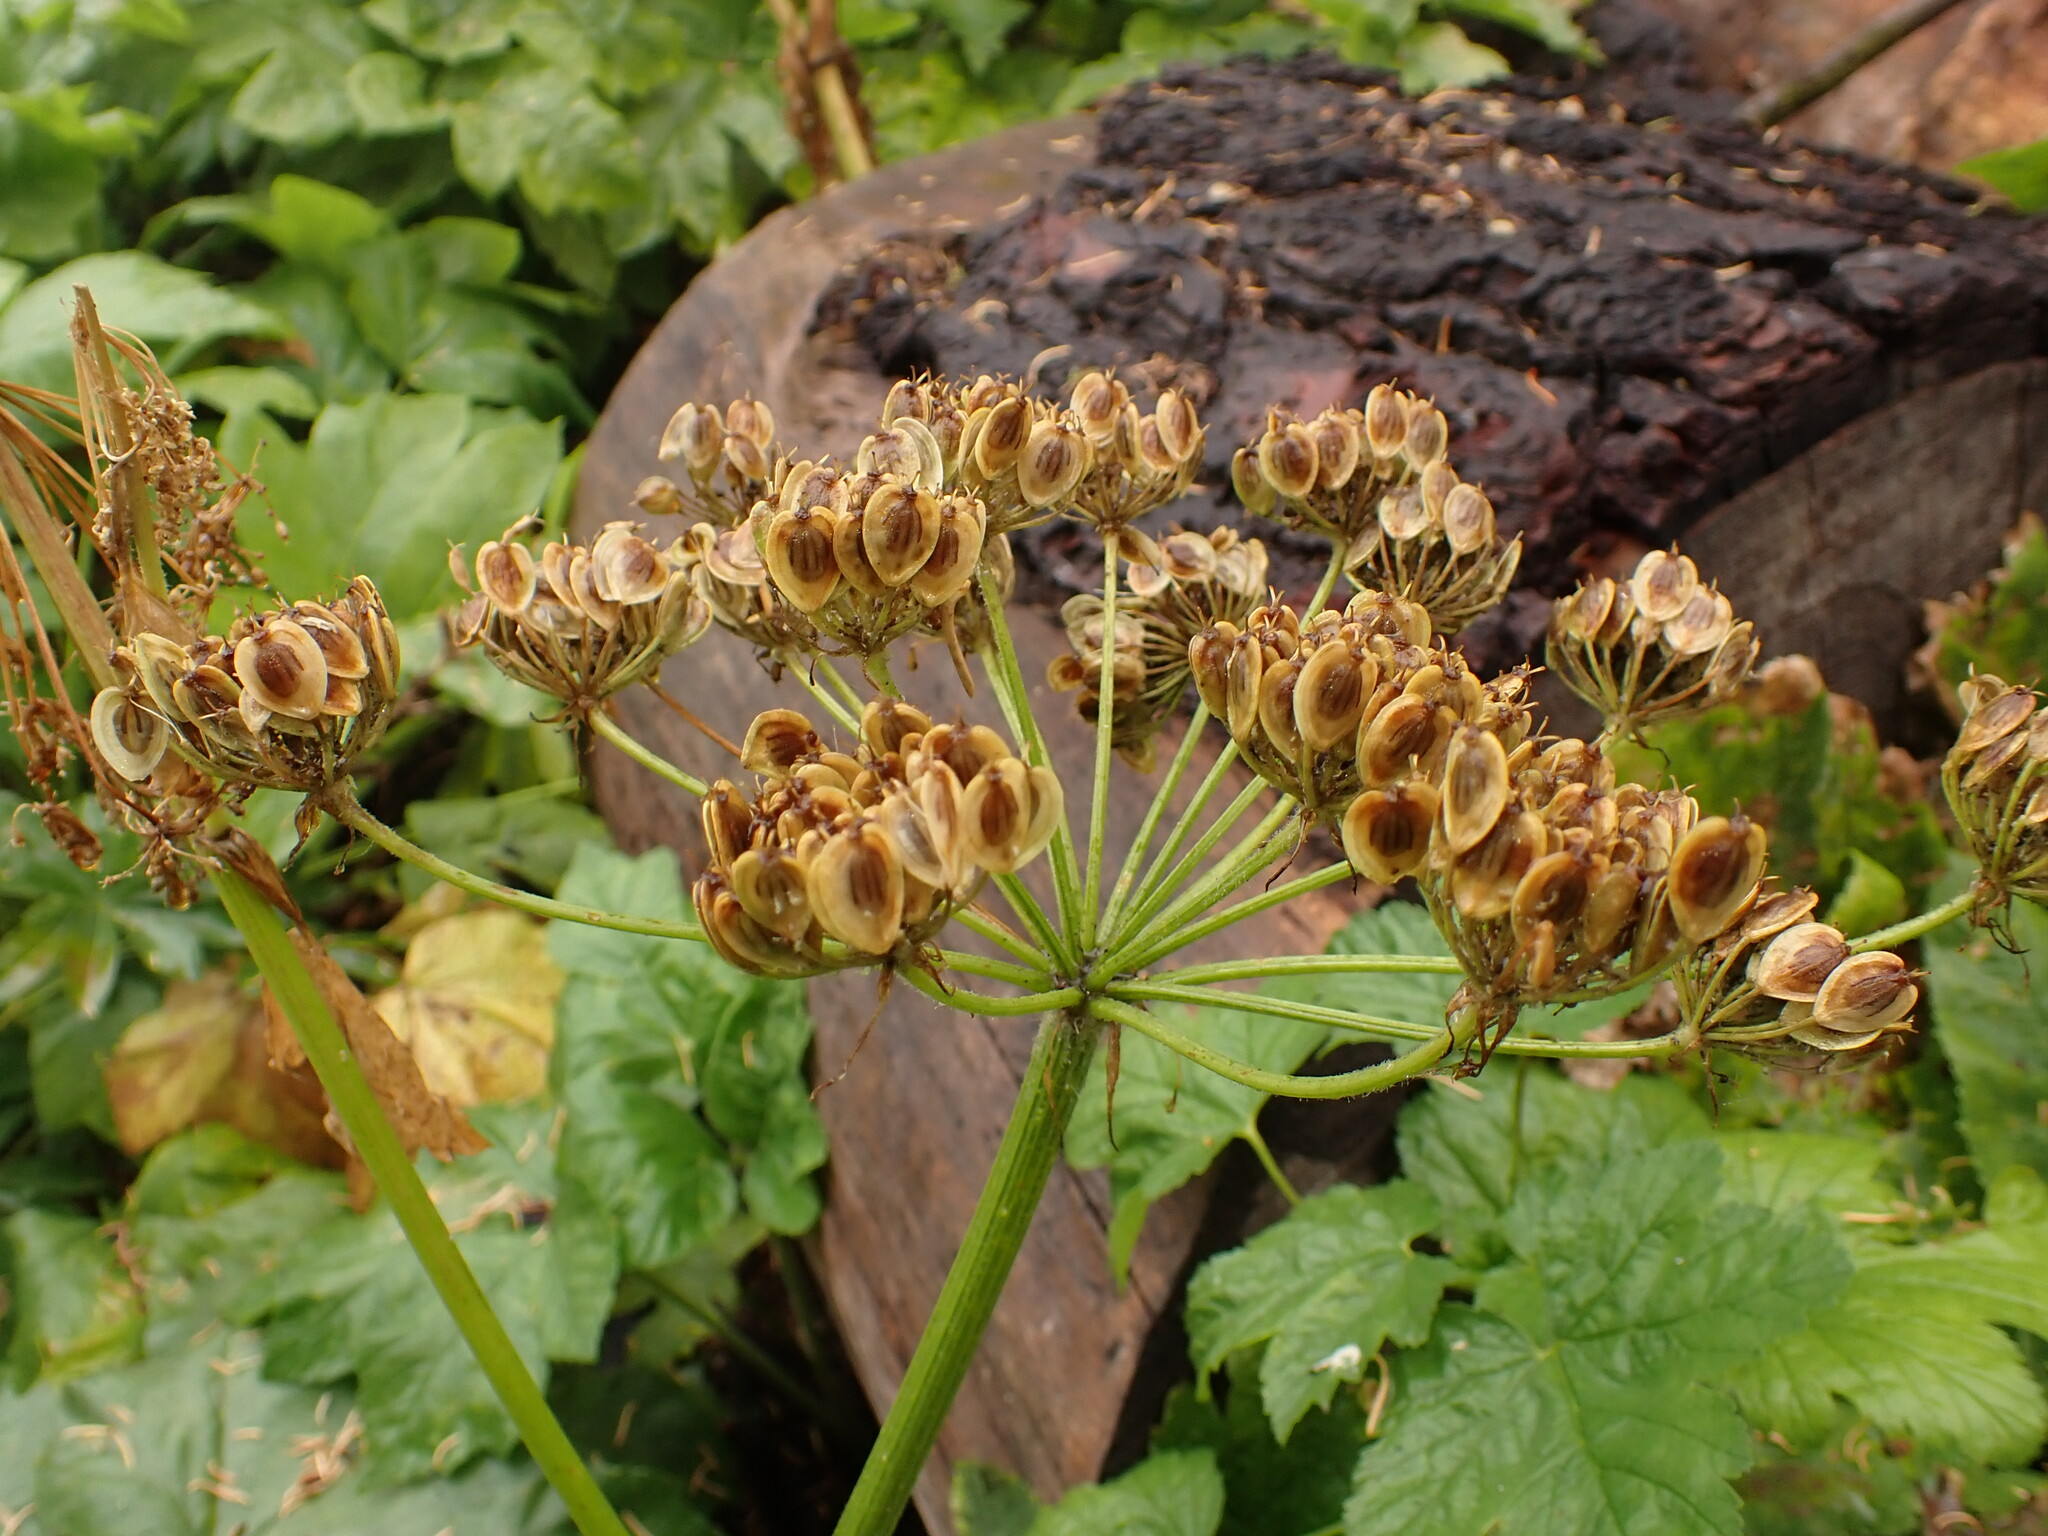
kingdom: Plantae
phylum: Tracheophyta
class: Magnoliopsida
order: Apiales
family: Apiaceae
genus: Heracleum
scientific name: Heracleum maximum
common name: American cow parsnip
